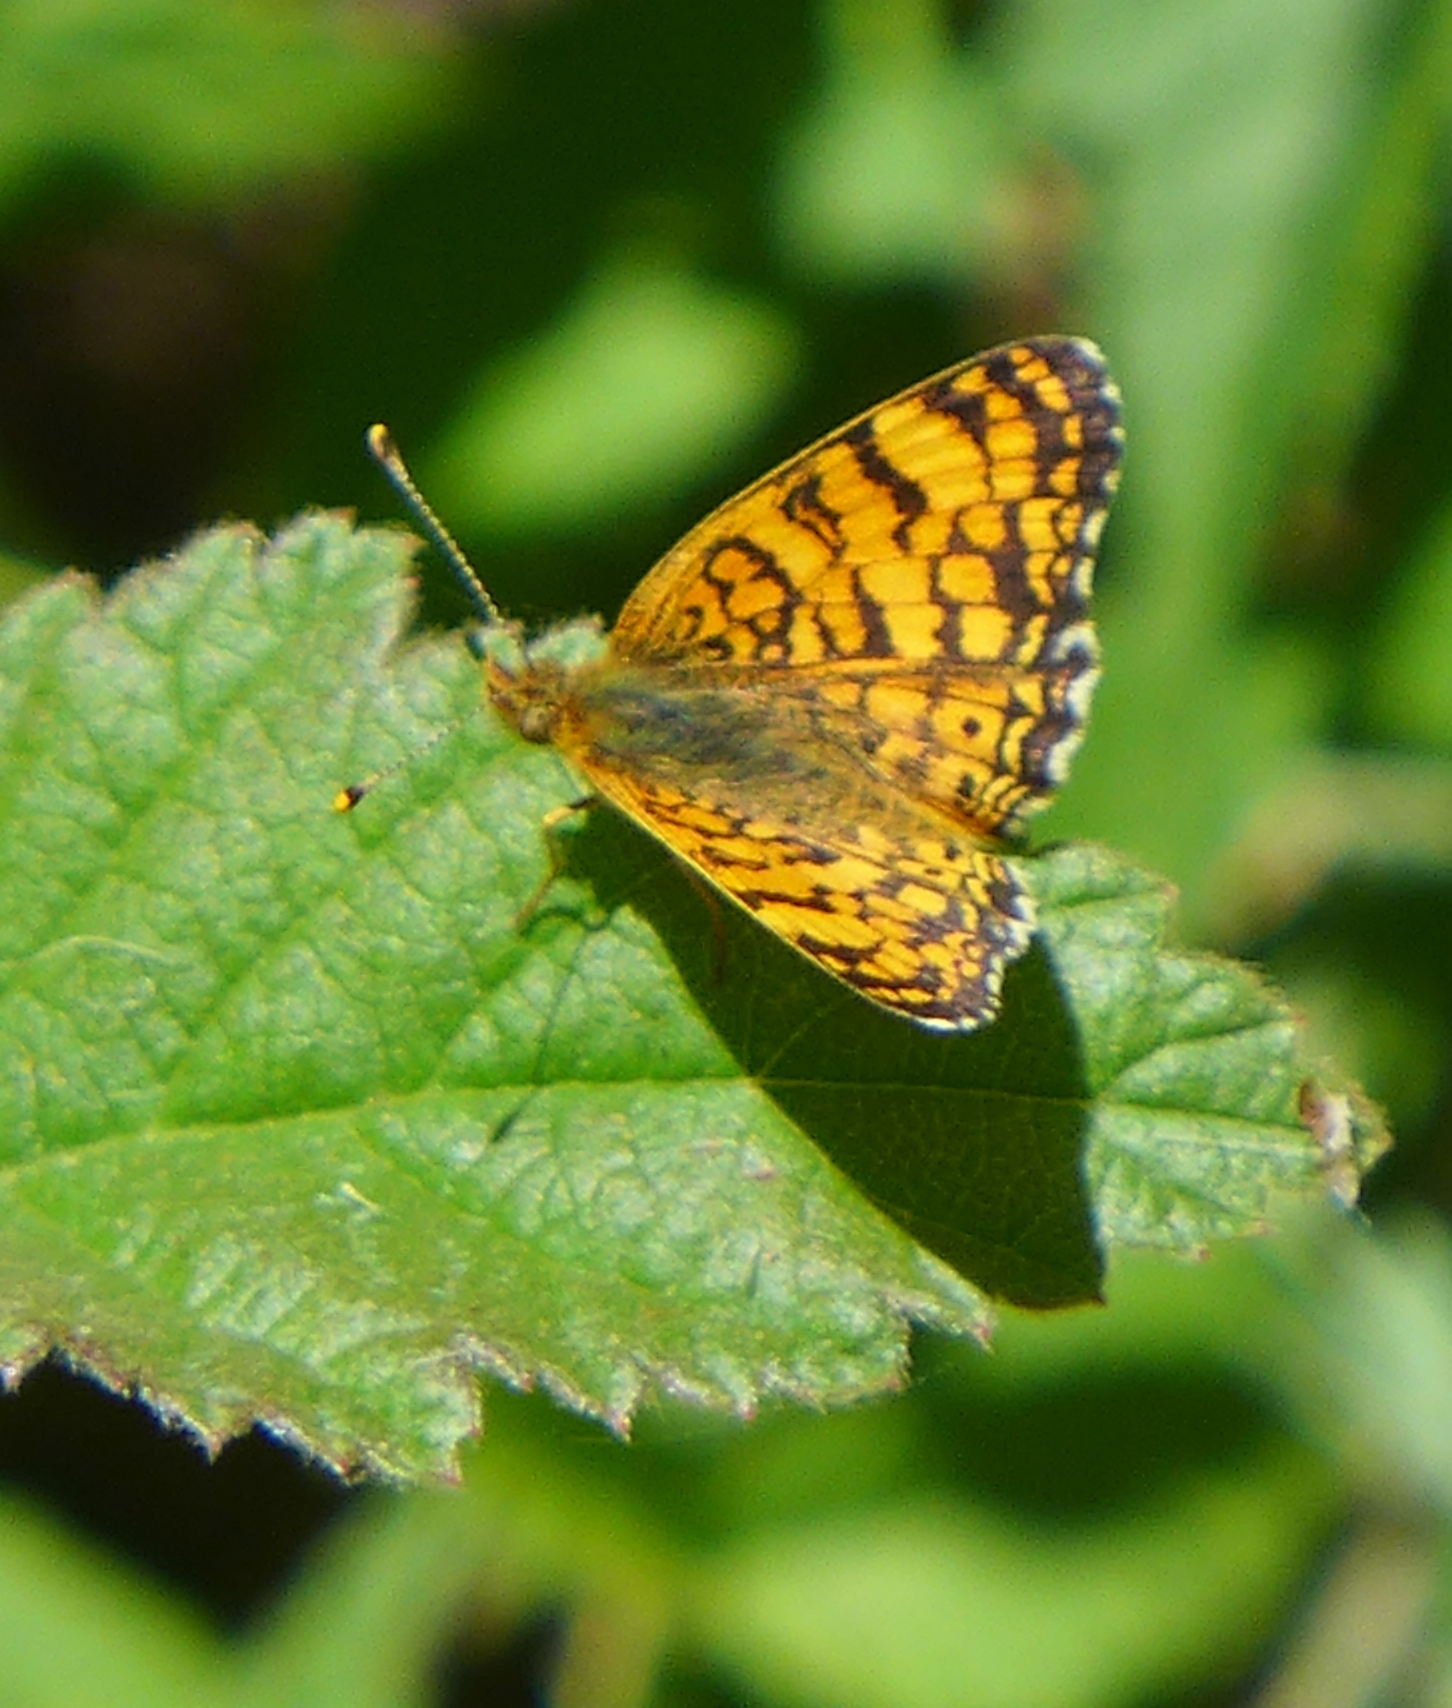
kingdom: Animalia
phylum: Arthropoda
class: Insecta
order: Lepidoptera
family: Nymphalidae
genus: Eresia
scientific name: Eresia aveyrona
